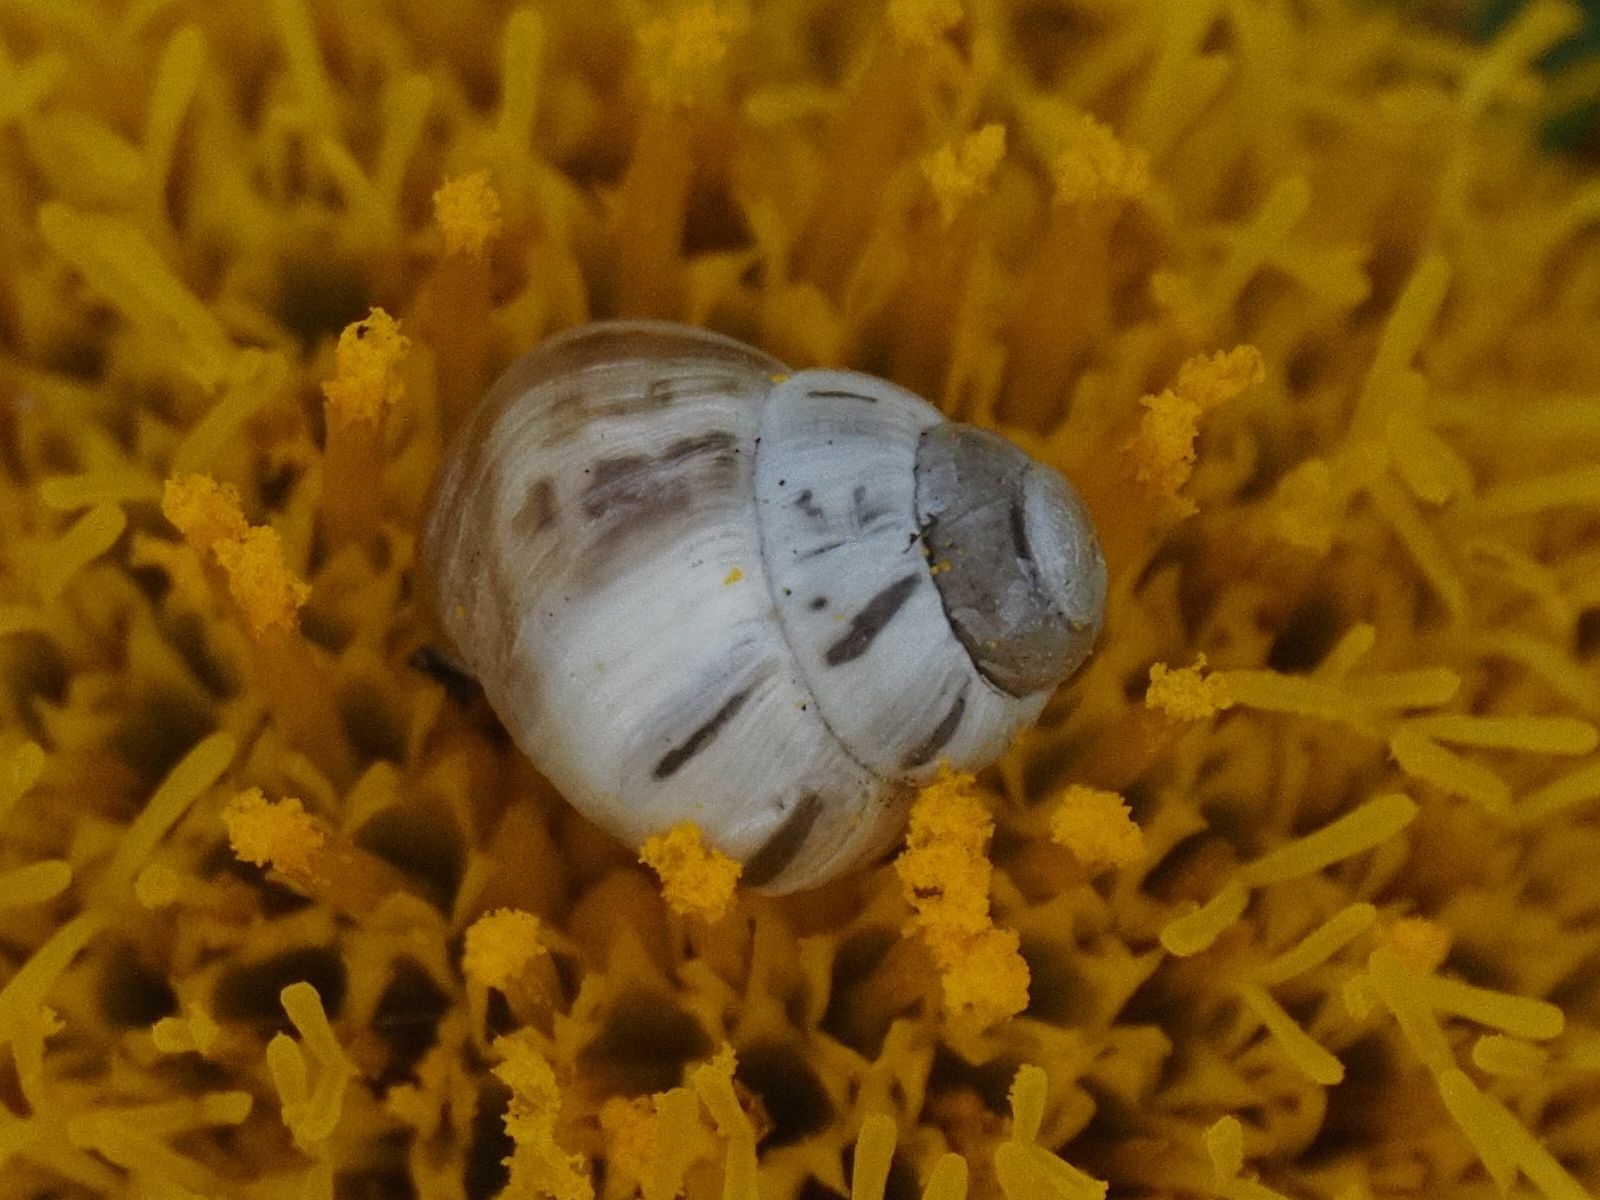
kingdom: Animalia
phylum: Mollusca
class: Gastropoda
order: Stylommatophora
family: Enidae
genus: Zebrina
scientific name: Zebrina detrita
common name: Large bulin
